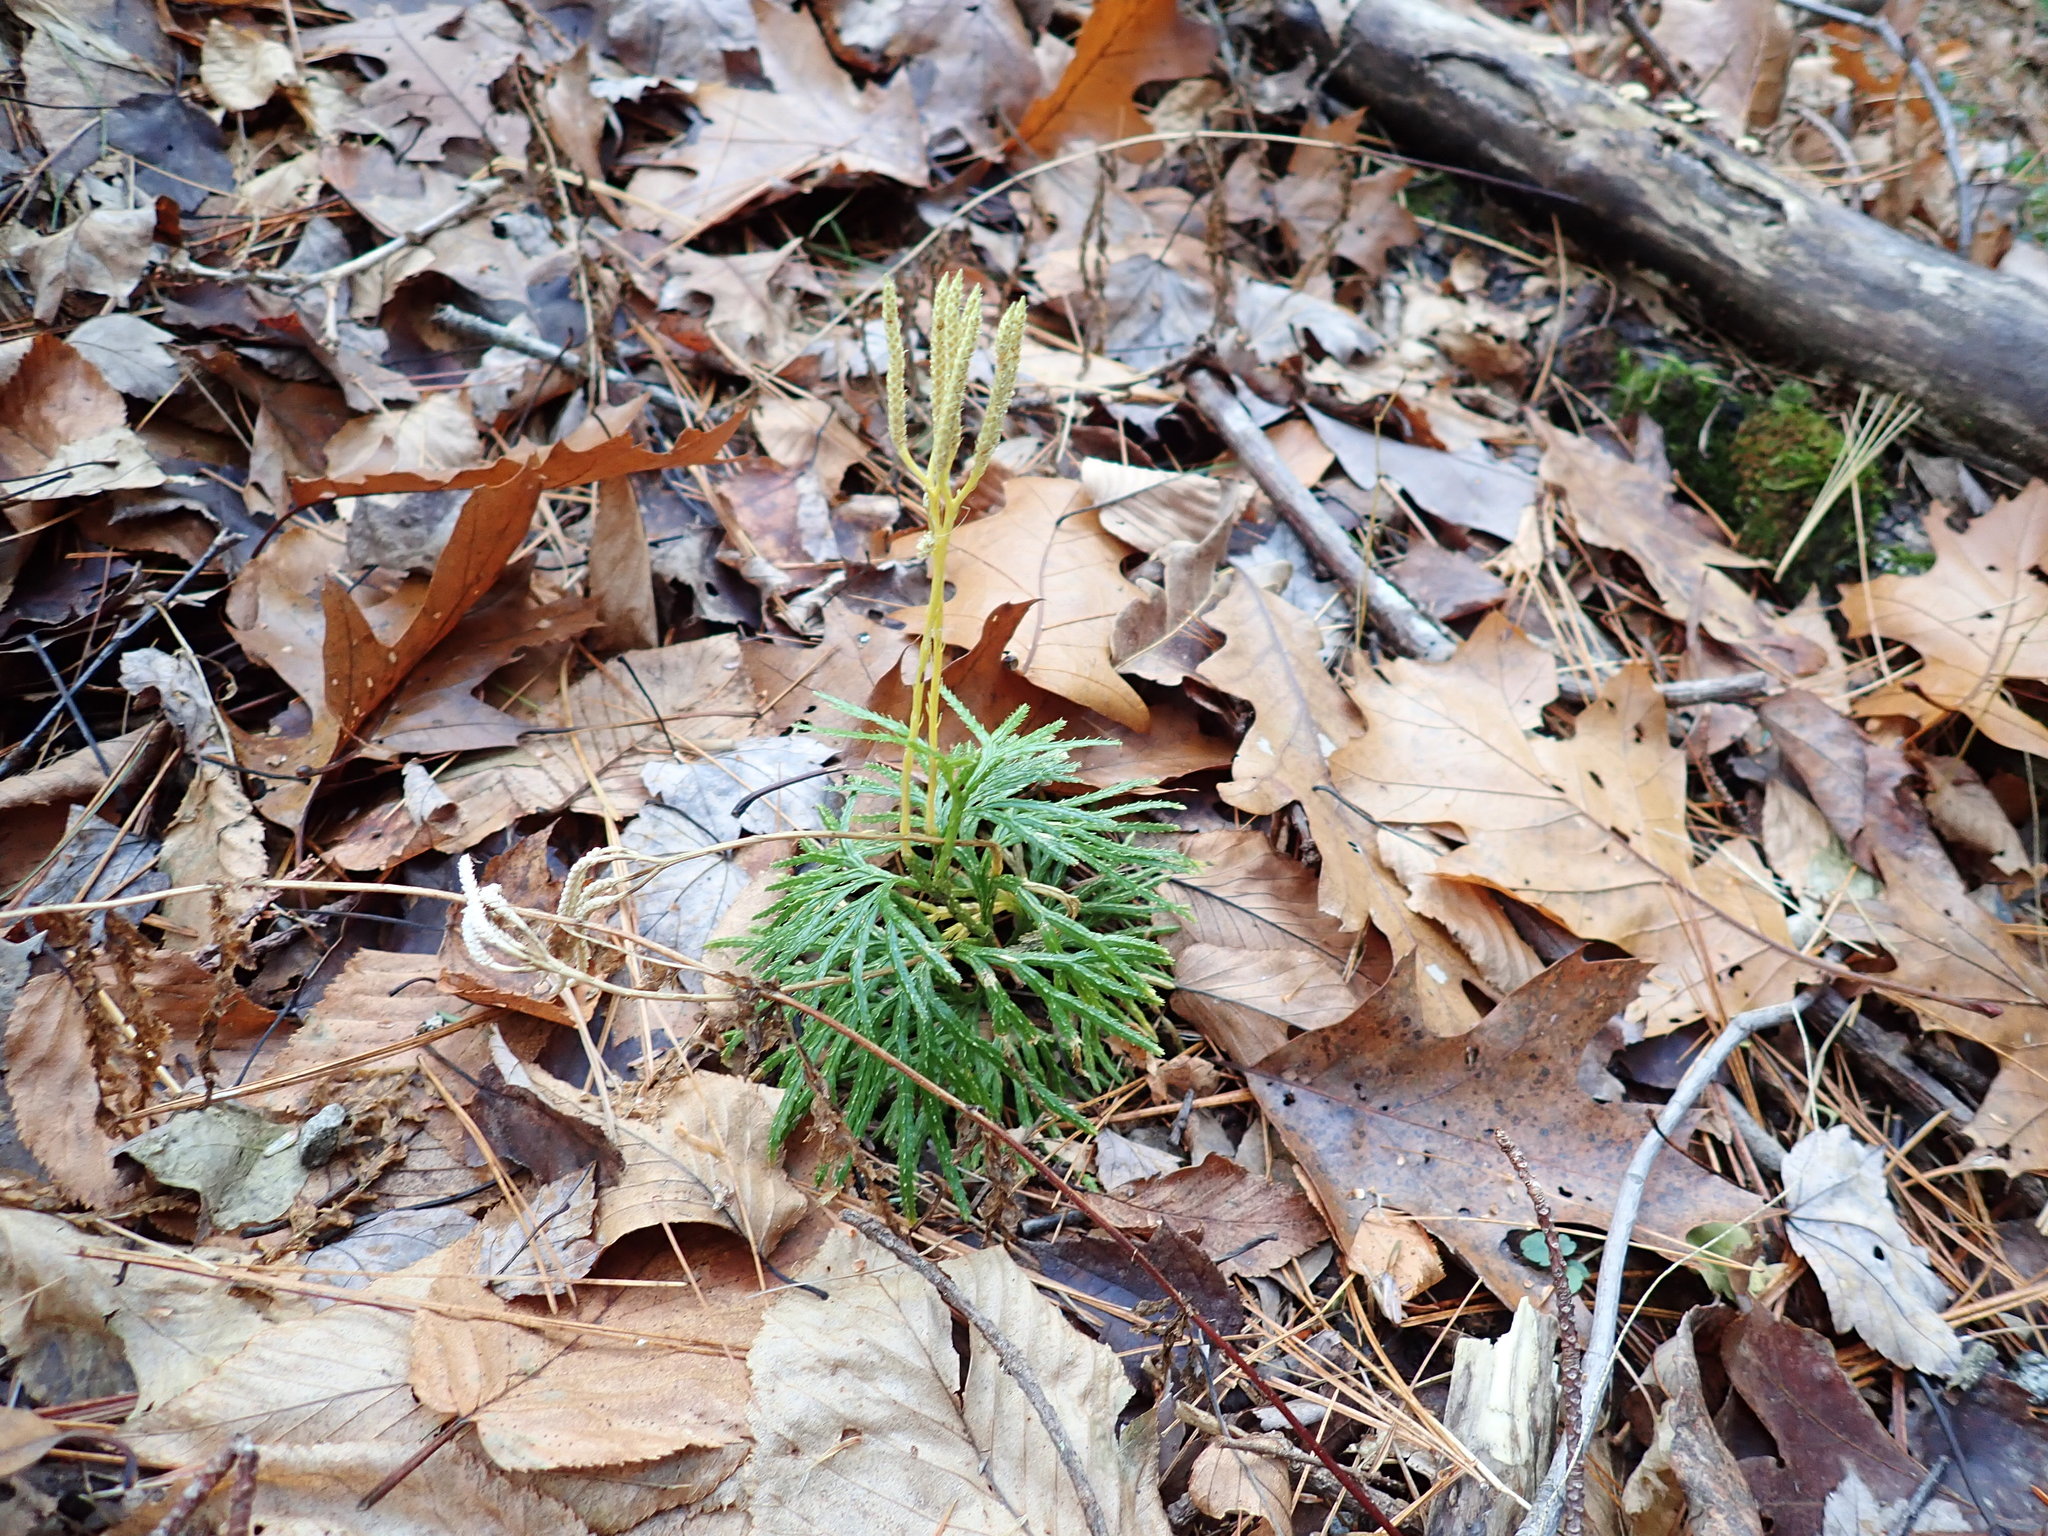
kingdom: Plantae
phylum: Tracheophyta
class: Lycopodiopsida
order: Lycopodiales
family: Lycopodiaceae
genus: Diphasiastrum
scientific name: Diphasiastrum digitatum
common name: Southern running-pine
